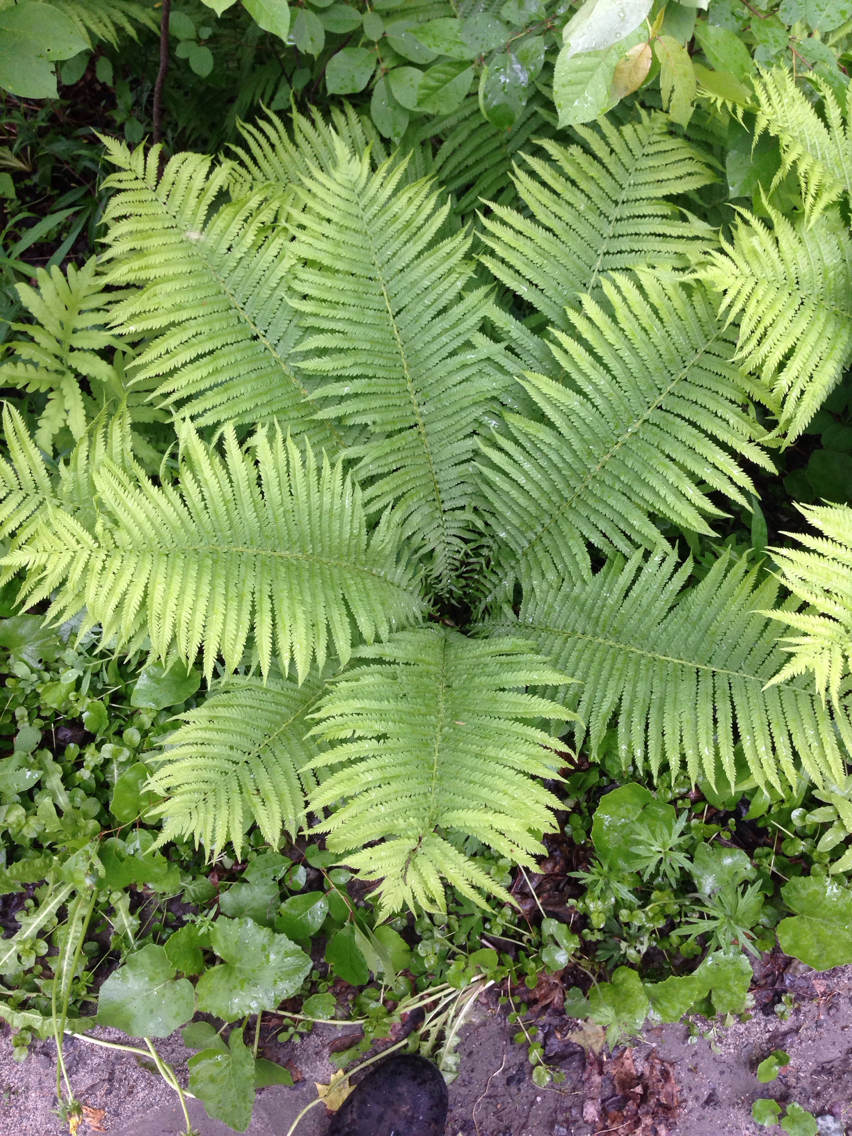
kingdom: Plantae
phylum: Tracheophyta
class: Polypodiopsida
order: Polypodiales
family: Onocleaceae
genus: Matteuccia
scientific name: Matteuccia struthiopteris
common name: Ostrich fern
